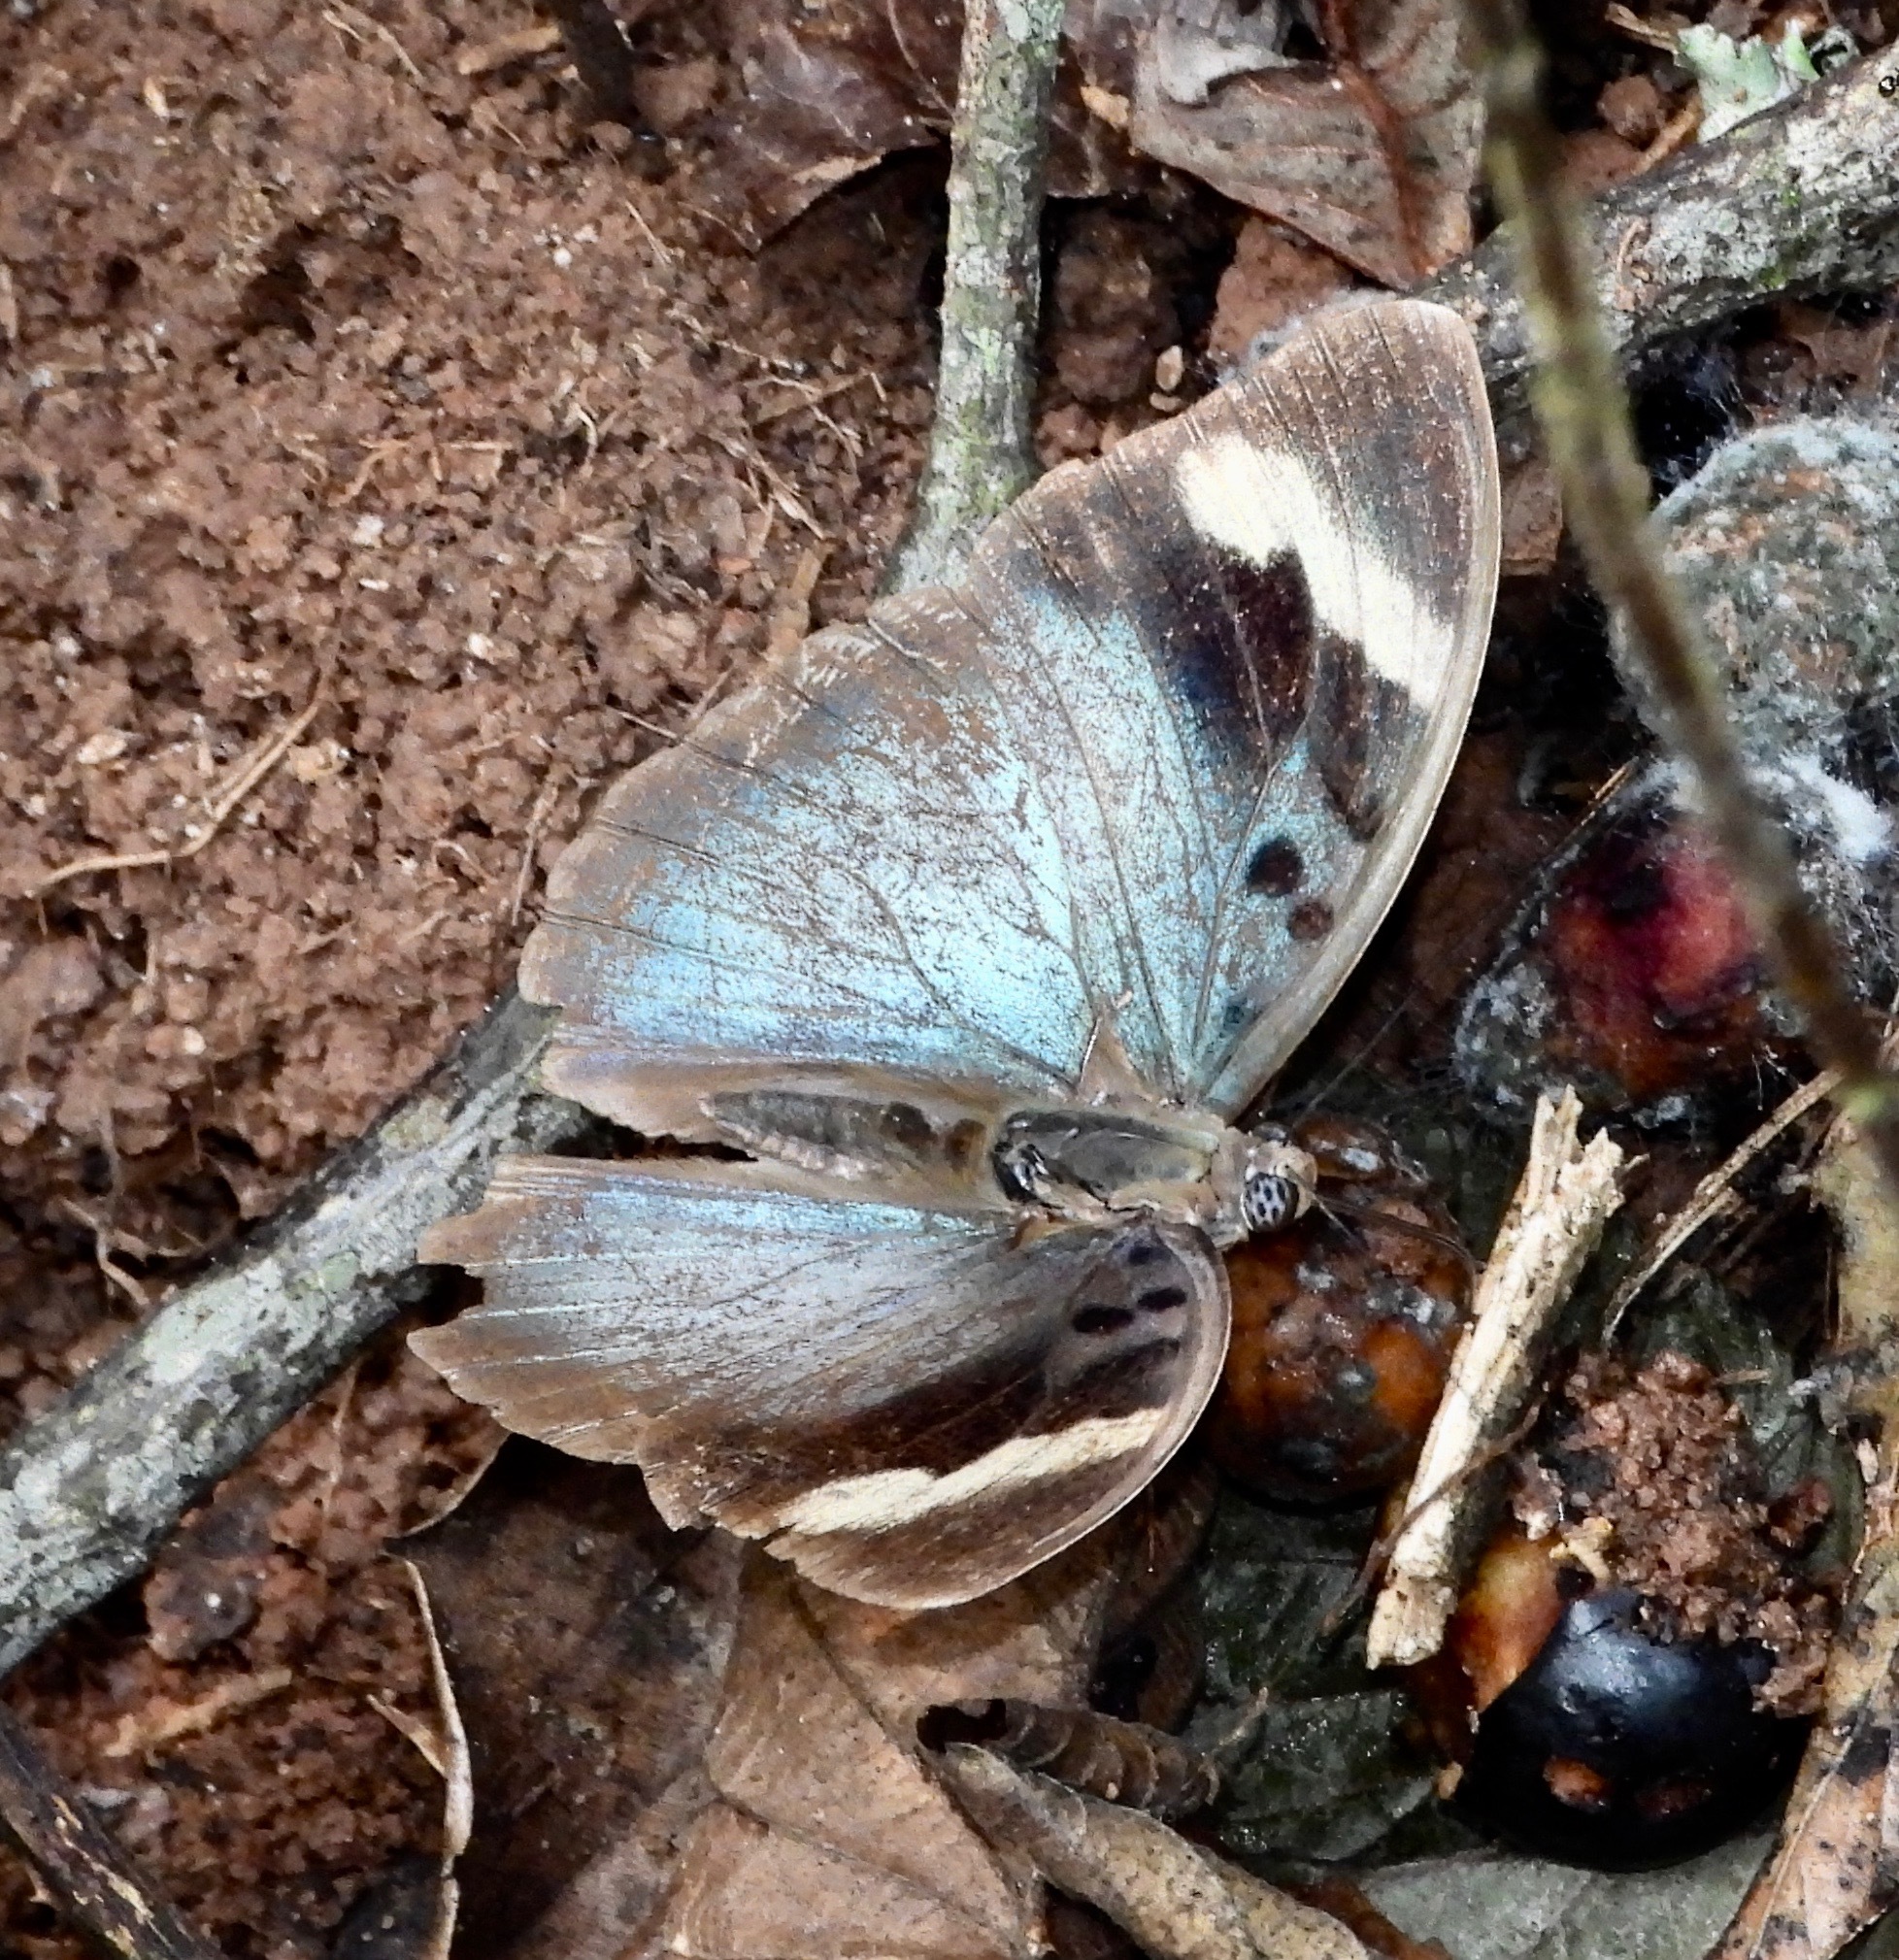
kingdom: Animalia
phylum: Arthropoda
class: Insecta
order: Lepidoptera
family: Nymphalidae
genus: Euphaedra
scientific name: Euphaedra medon
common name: Widespread forester
